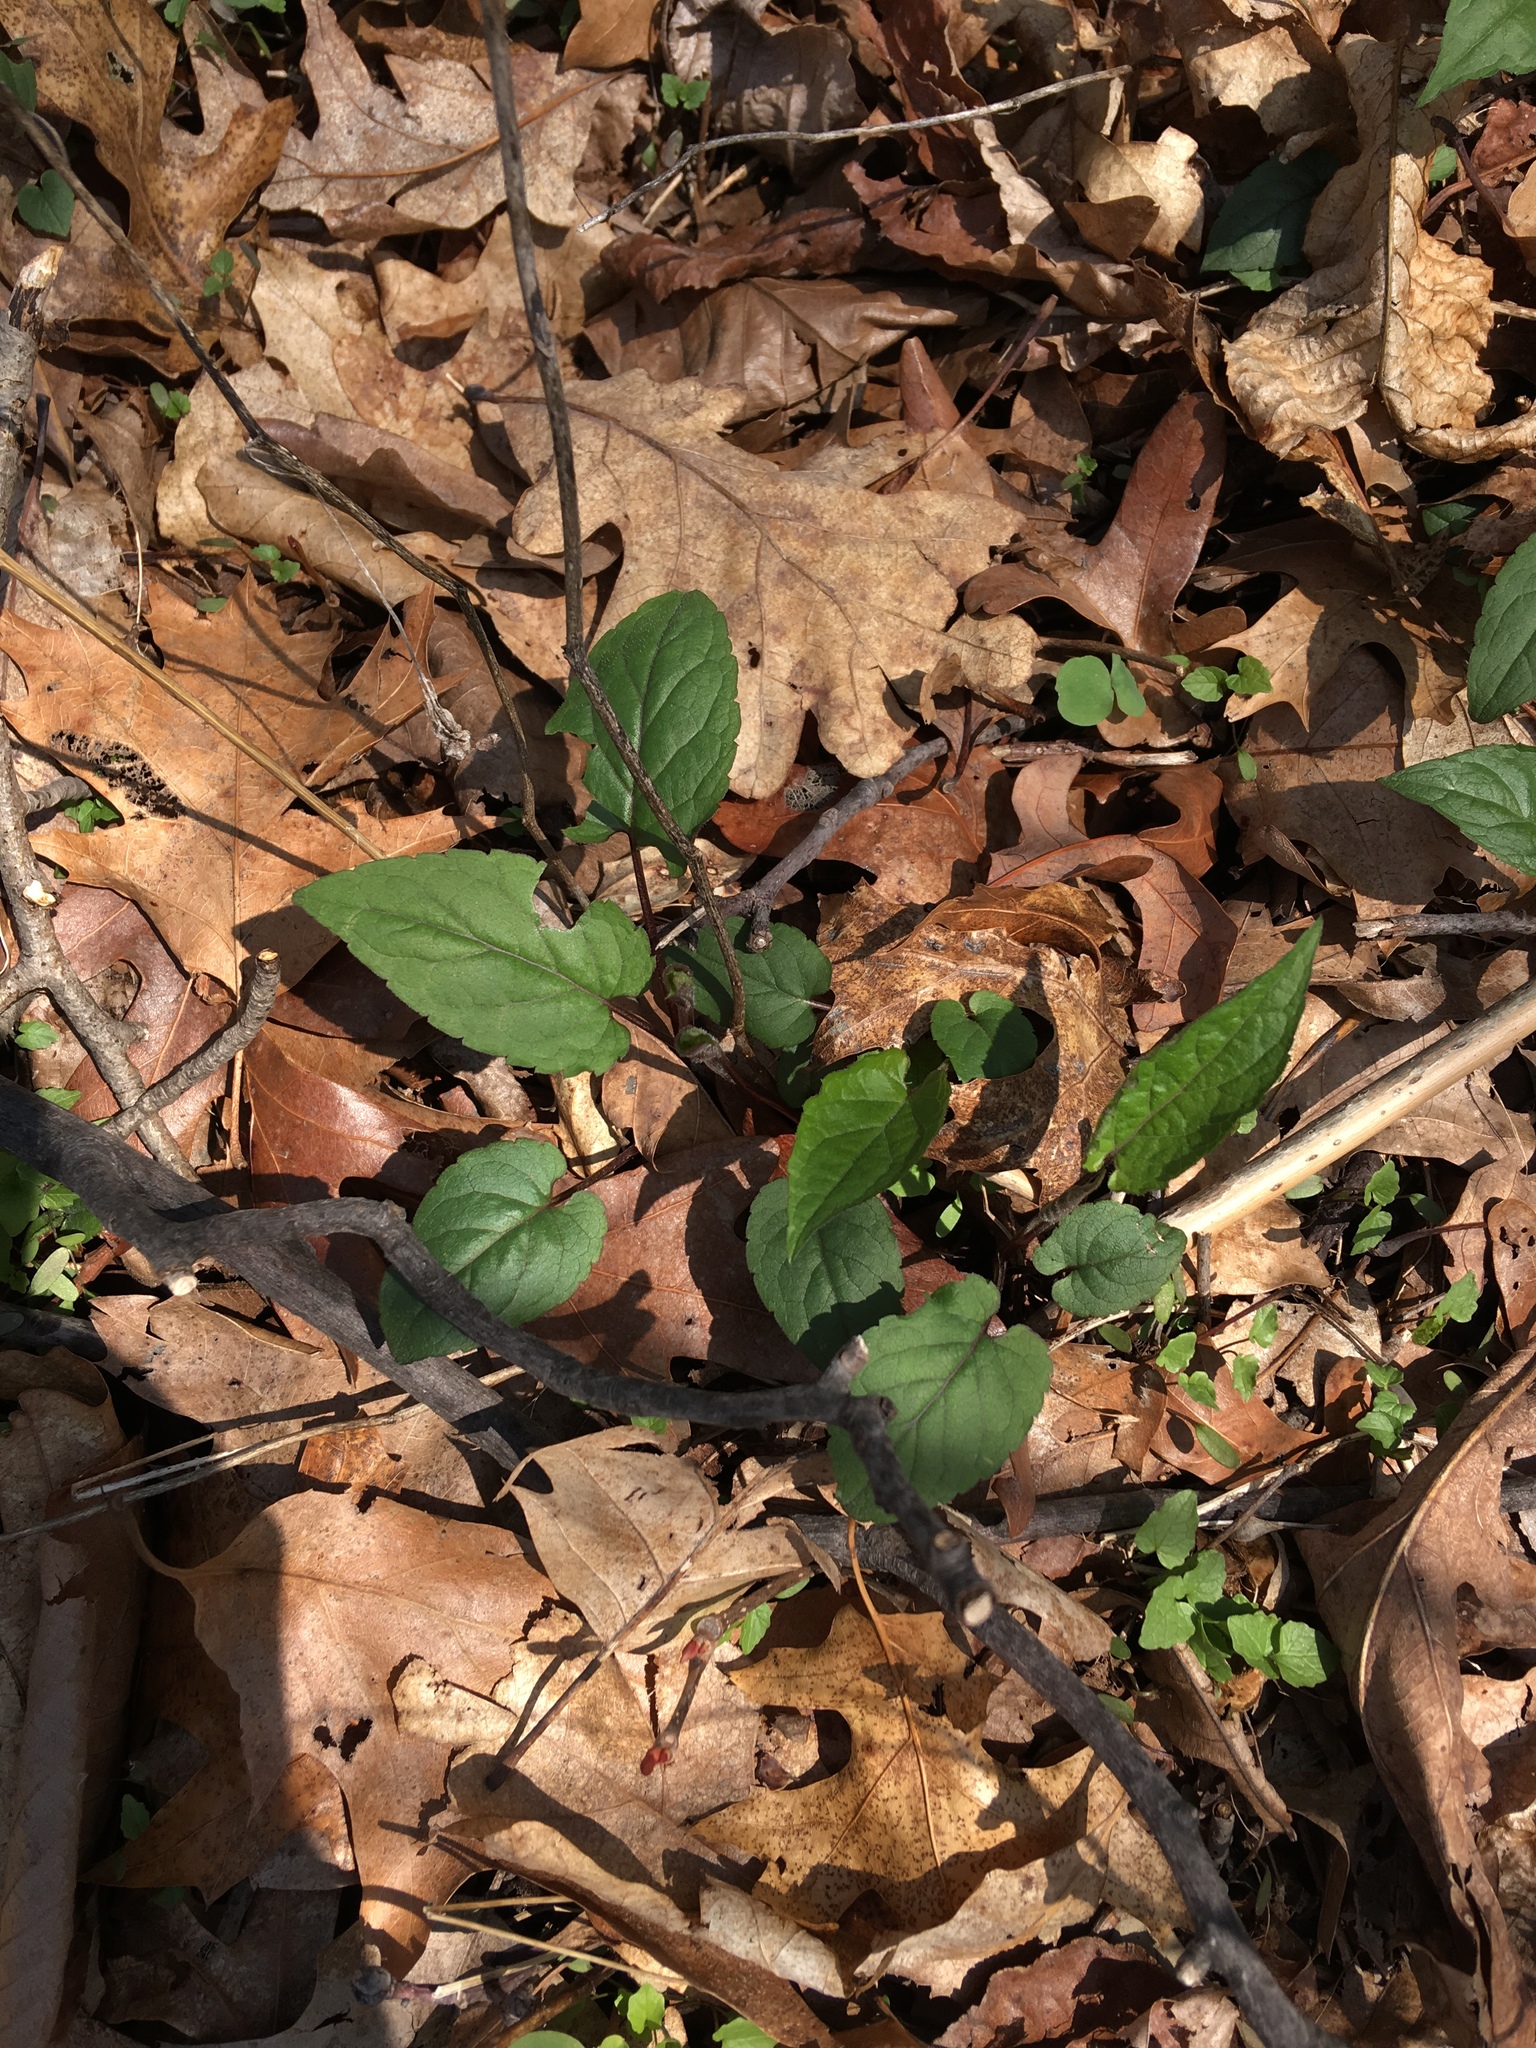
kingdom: Plantae
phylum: Tracheophyta
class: Magnoliopsida
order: Asterales
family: Asteraceae
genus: Eurybia
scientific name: Eurybia divaricata
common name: White wood aster
